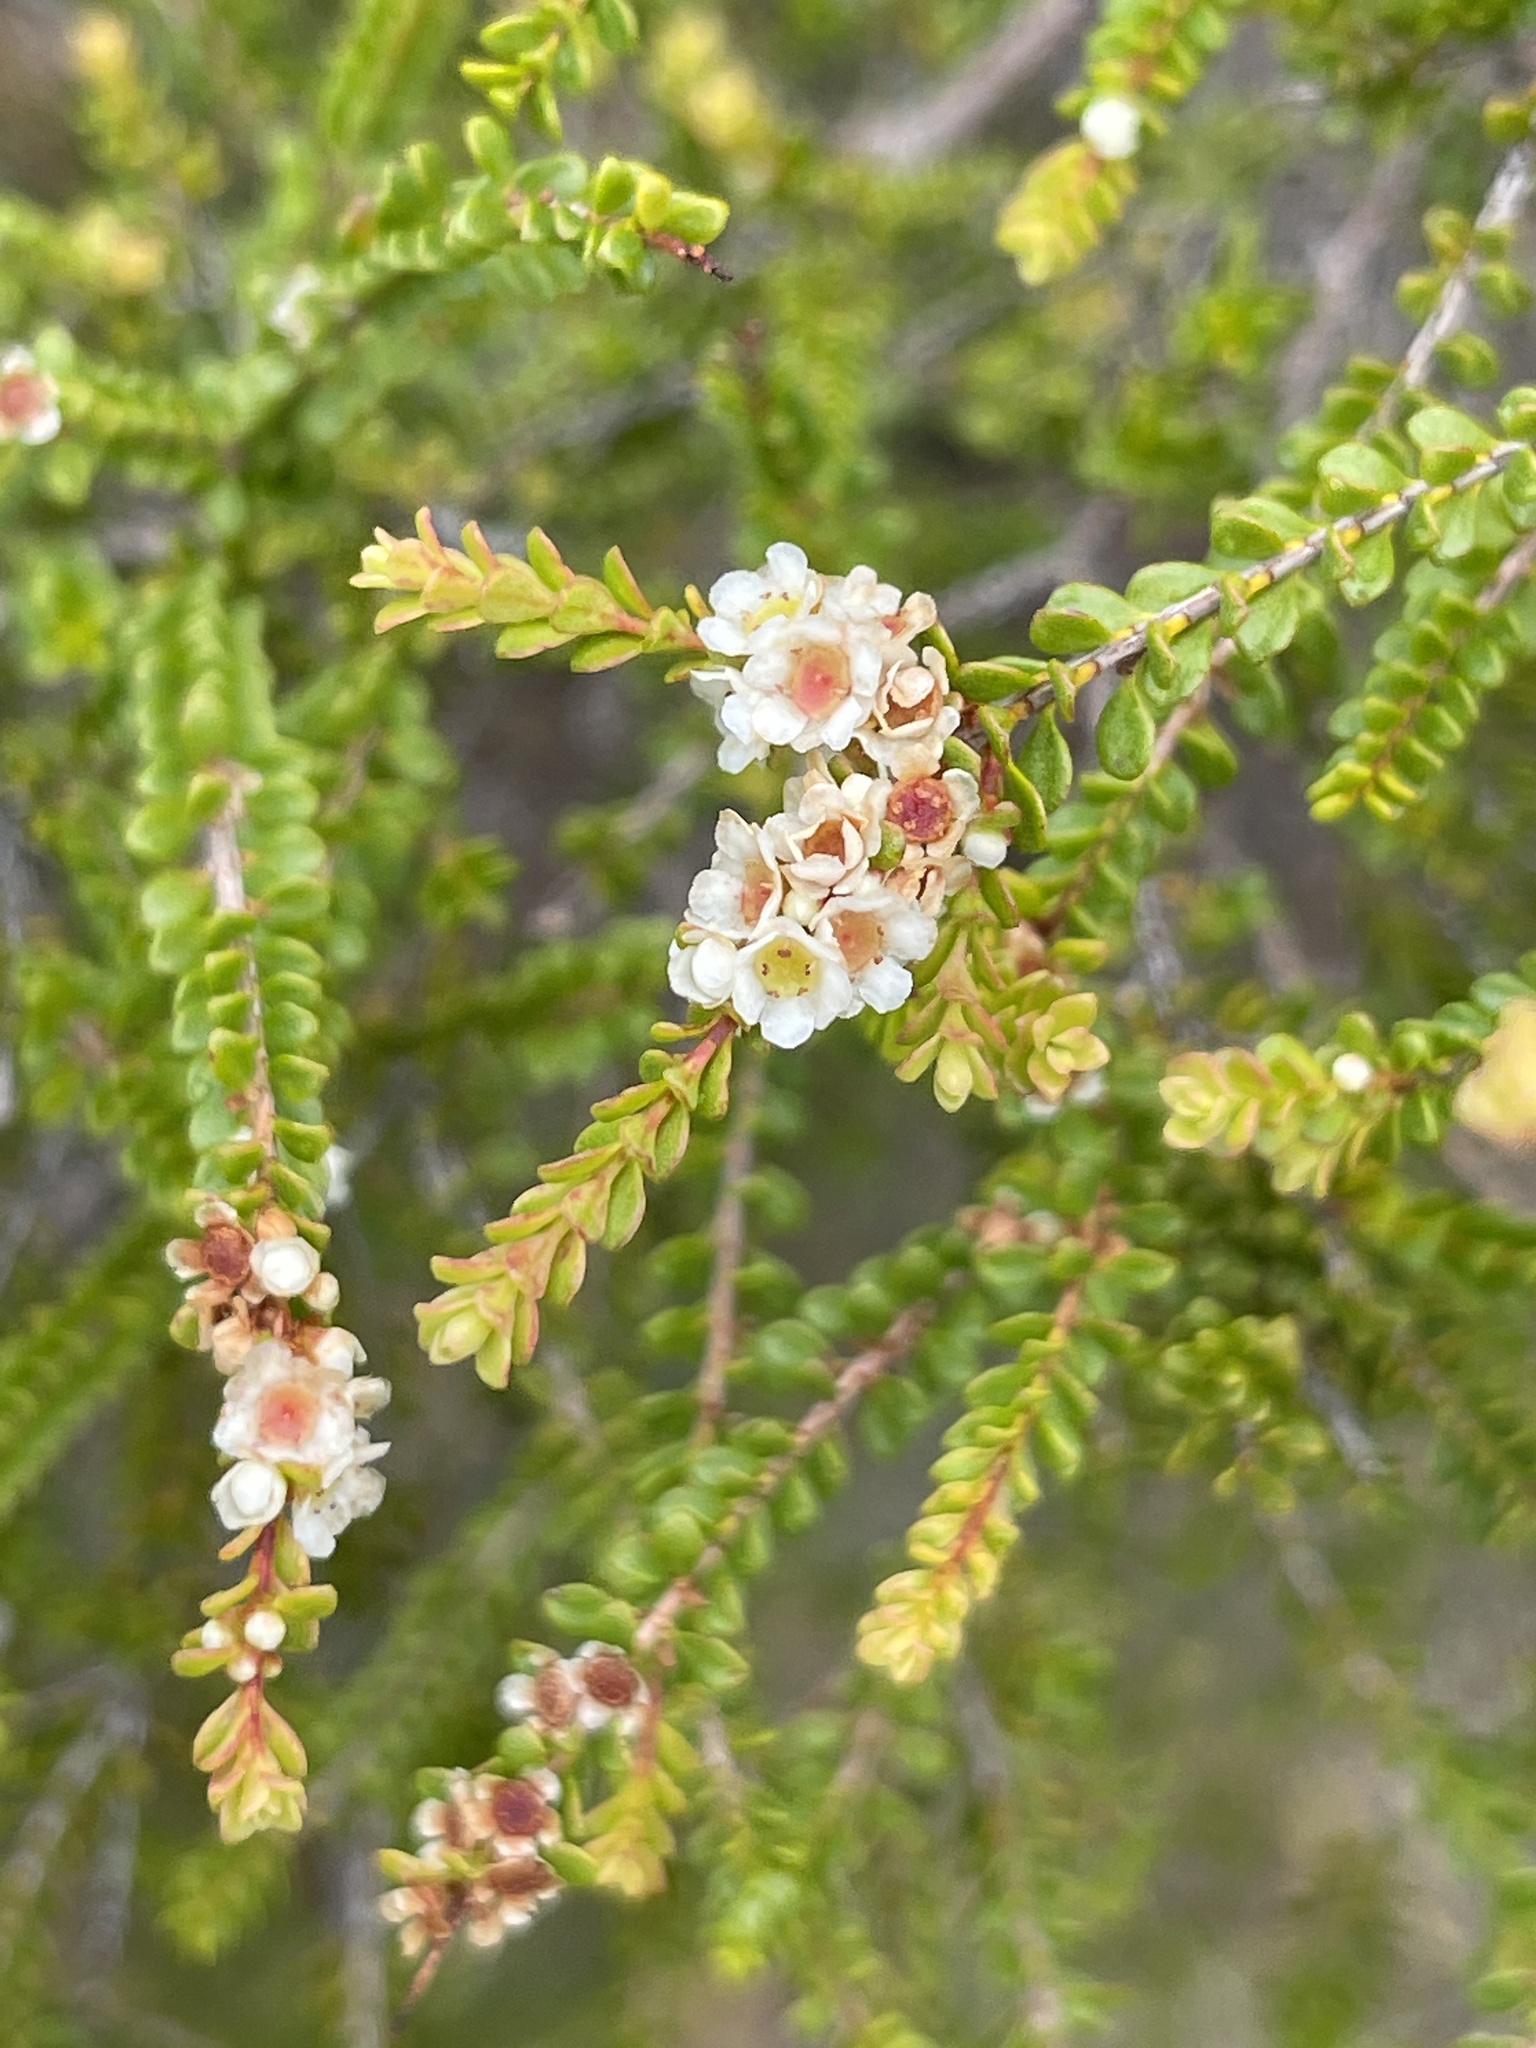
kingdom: Plantae
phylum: Tracheophyta
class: Magnoliopsida
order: Myrtales
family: Myrtaceae
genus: Thryptomene
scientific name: Thryptomene oligandra
